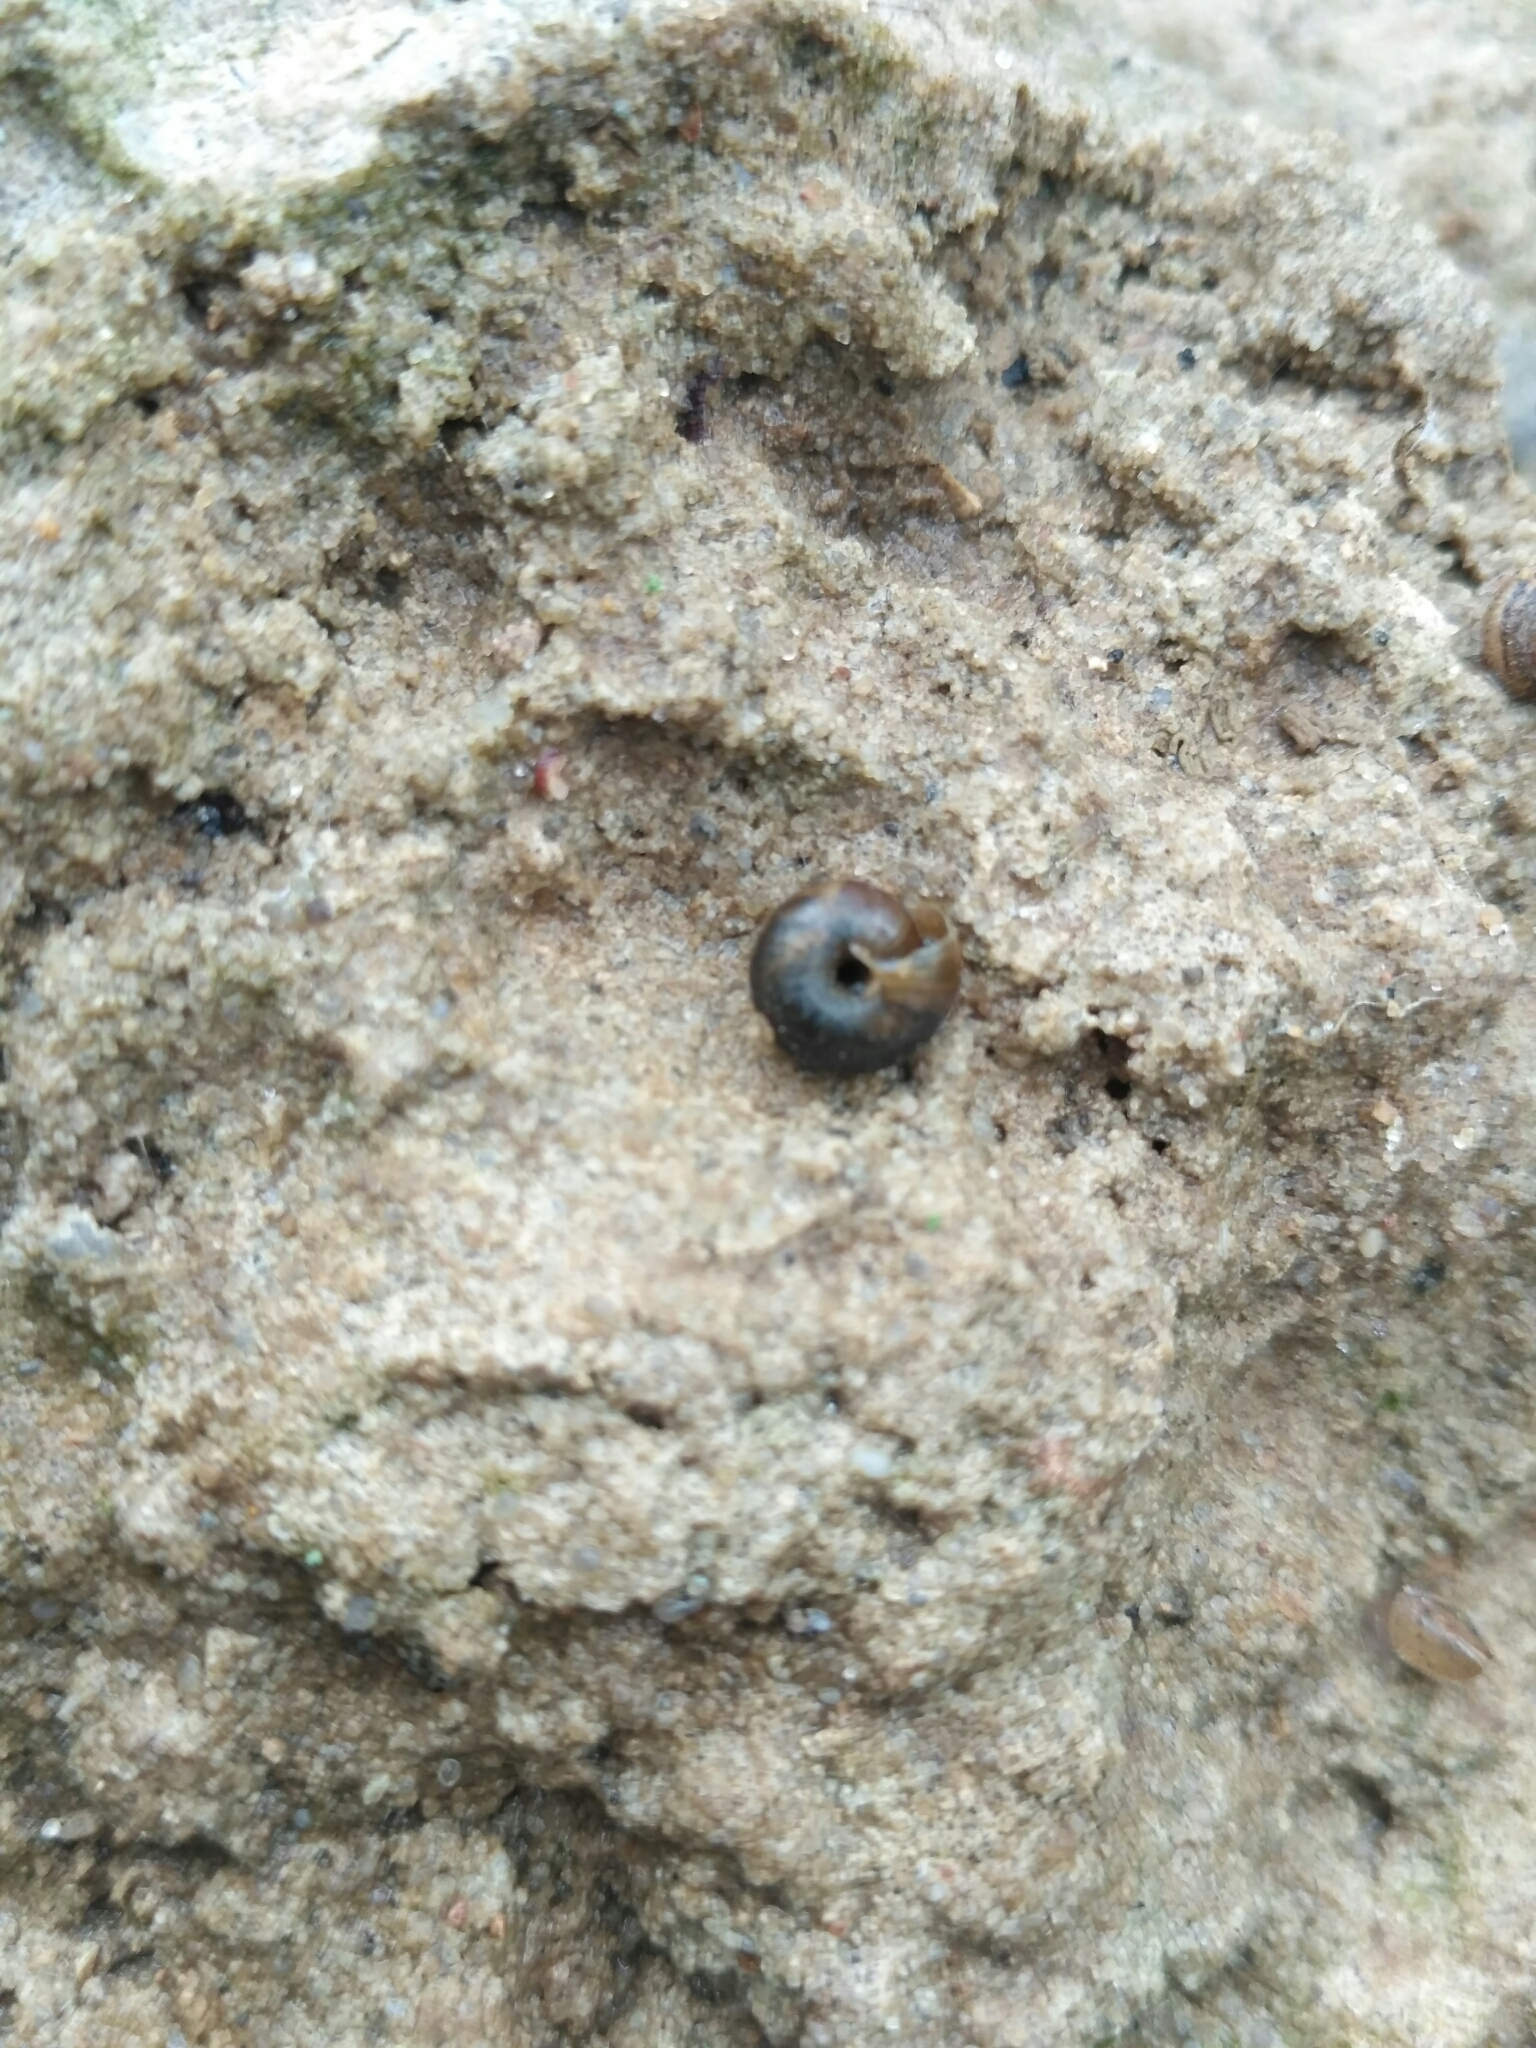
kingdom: Animalia
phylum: Mollusca
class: Gastropoda
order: Stylommatophora
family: Hygromiidae
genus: Trochulus
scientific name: Trochulus hispidus
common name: Hairy snail
